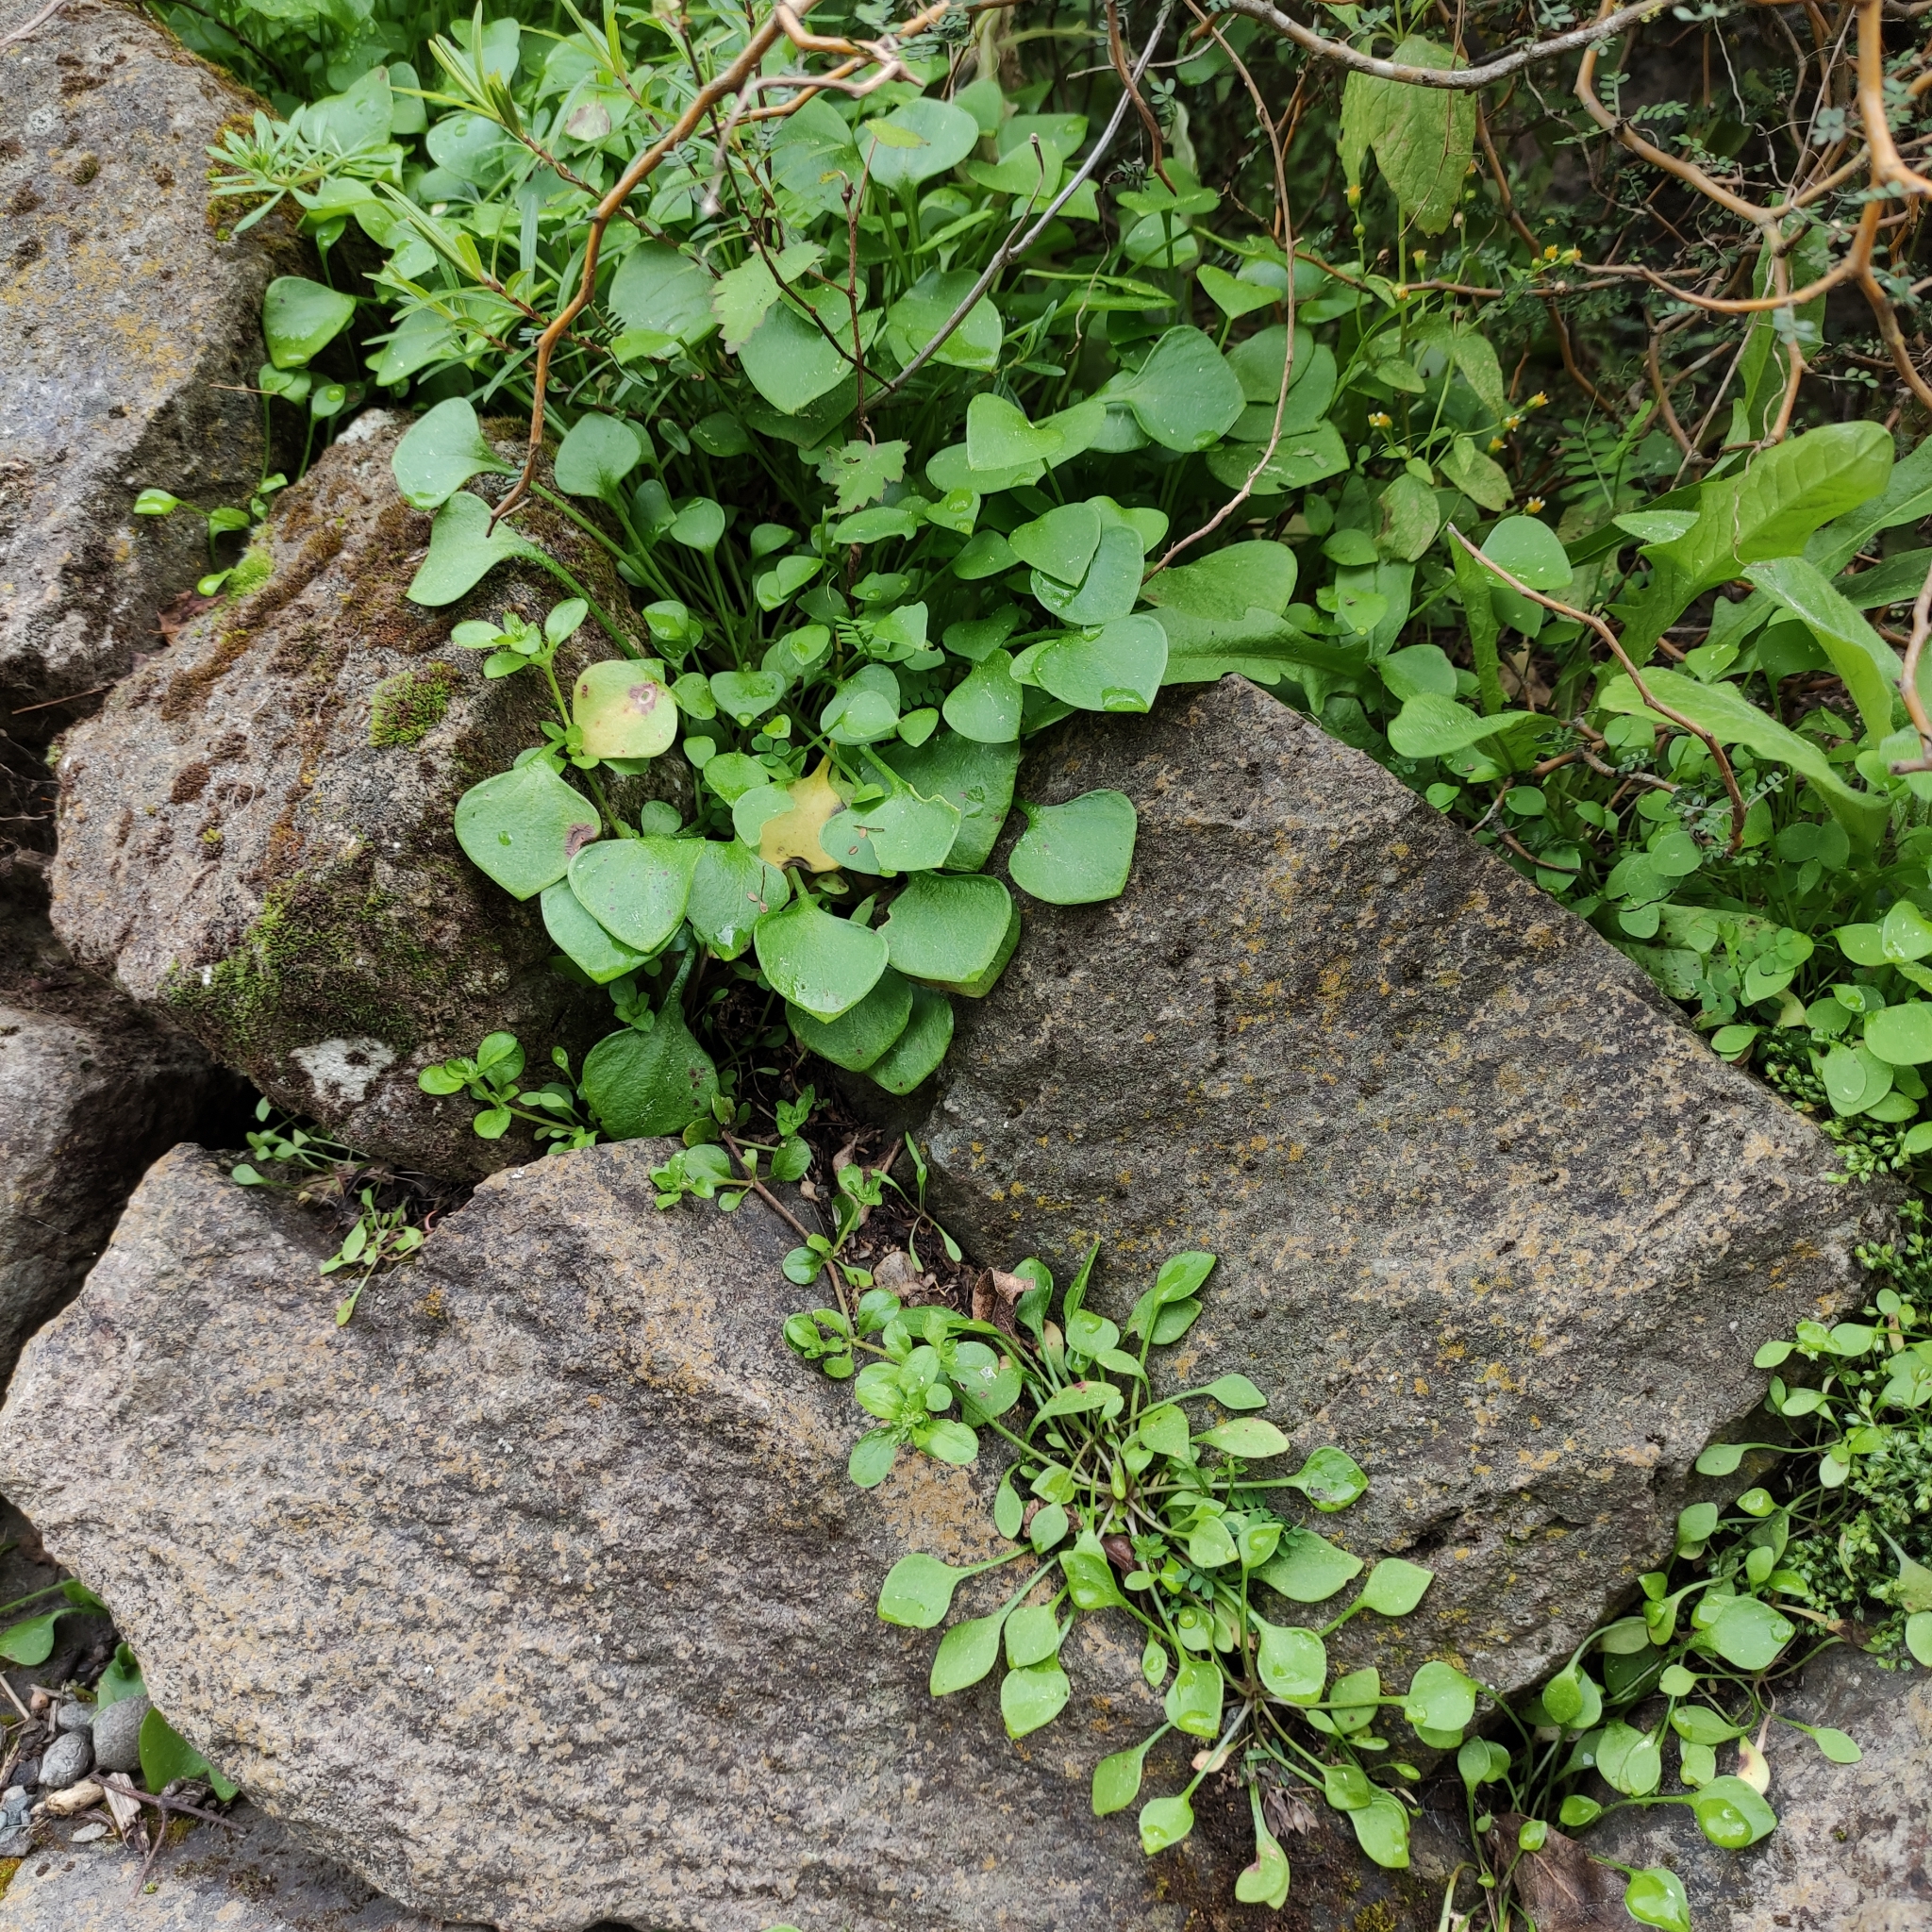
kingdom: Plantae
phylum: Tracheophyta
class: Magnoliopsida
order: Caryophyllales
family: Montiaceae
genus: Claytonia
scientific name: Claytonia perfoliata
